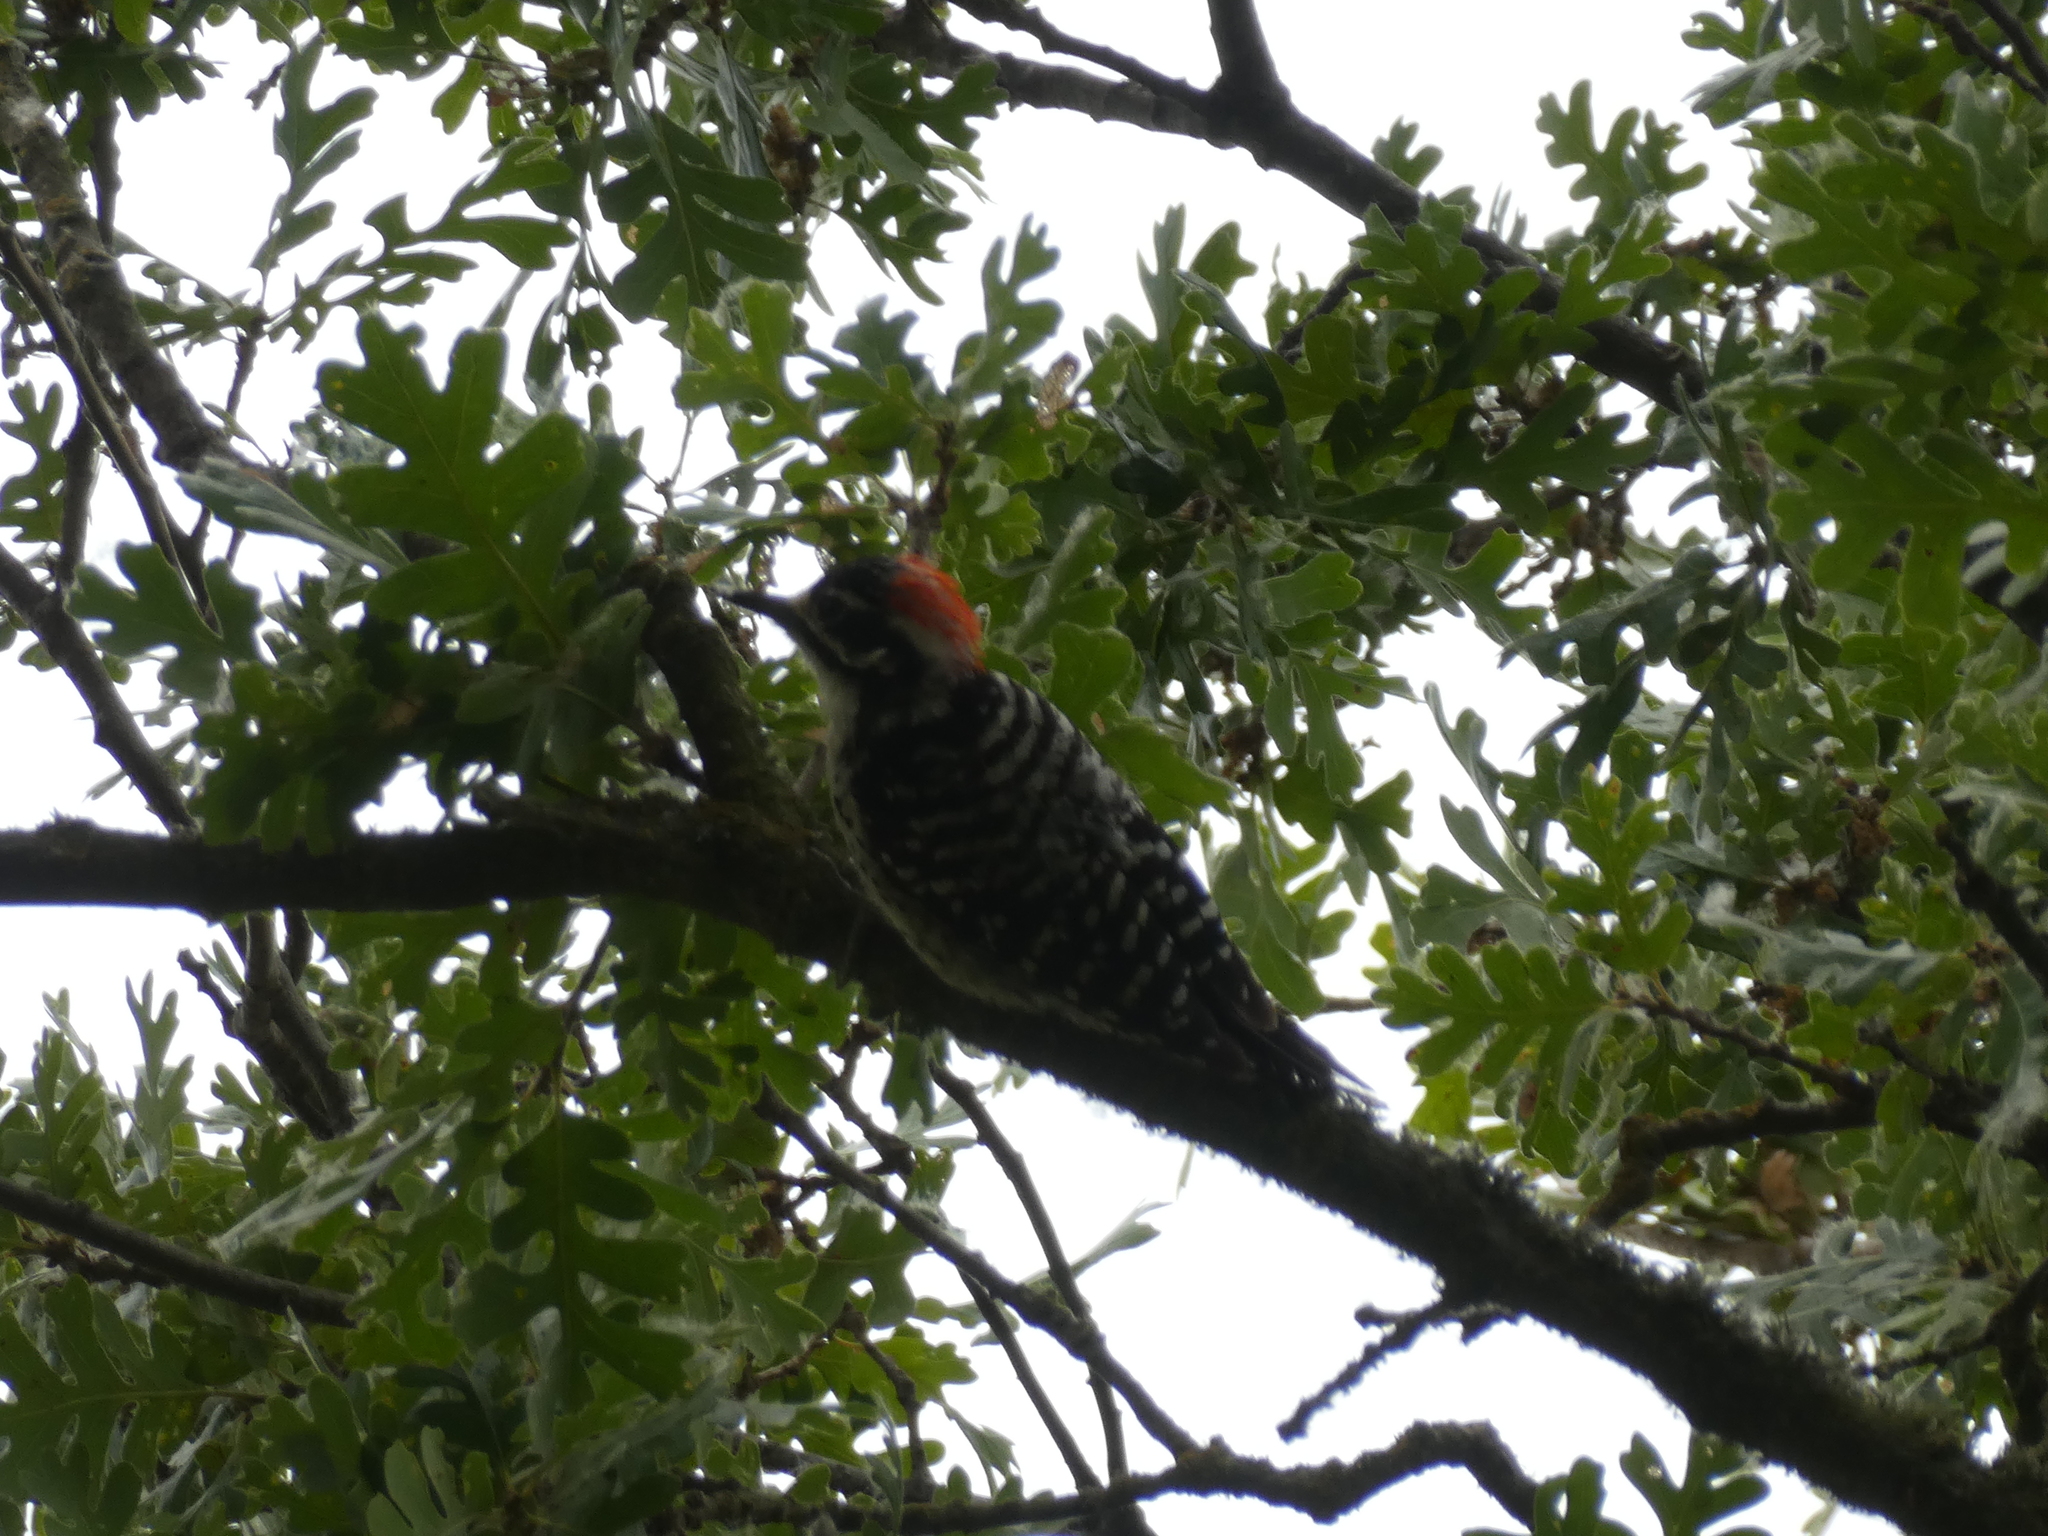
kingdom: Animalia
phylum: Chordata
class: Aves
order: Piciformes
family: Picidae
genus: Dryobates
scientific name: Dryobates nuttallii
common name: Nuttall's woodpecker
